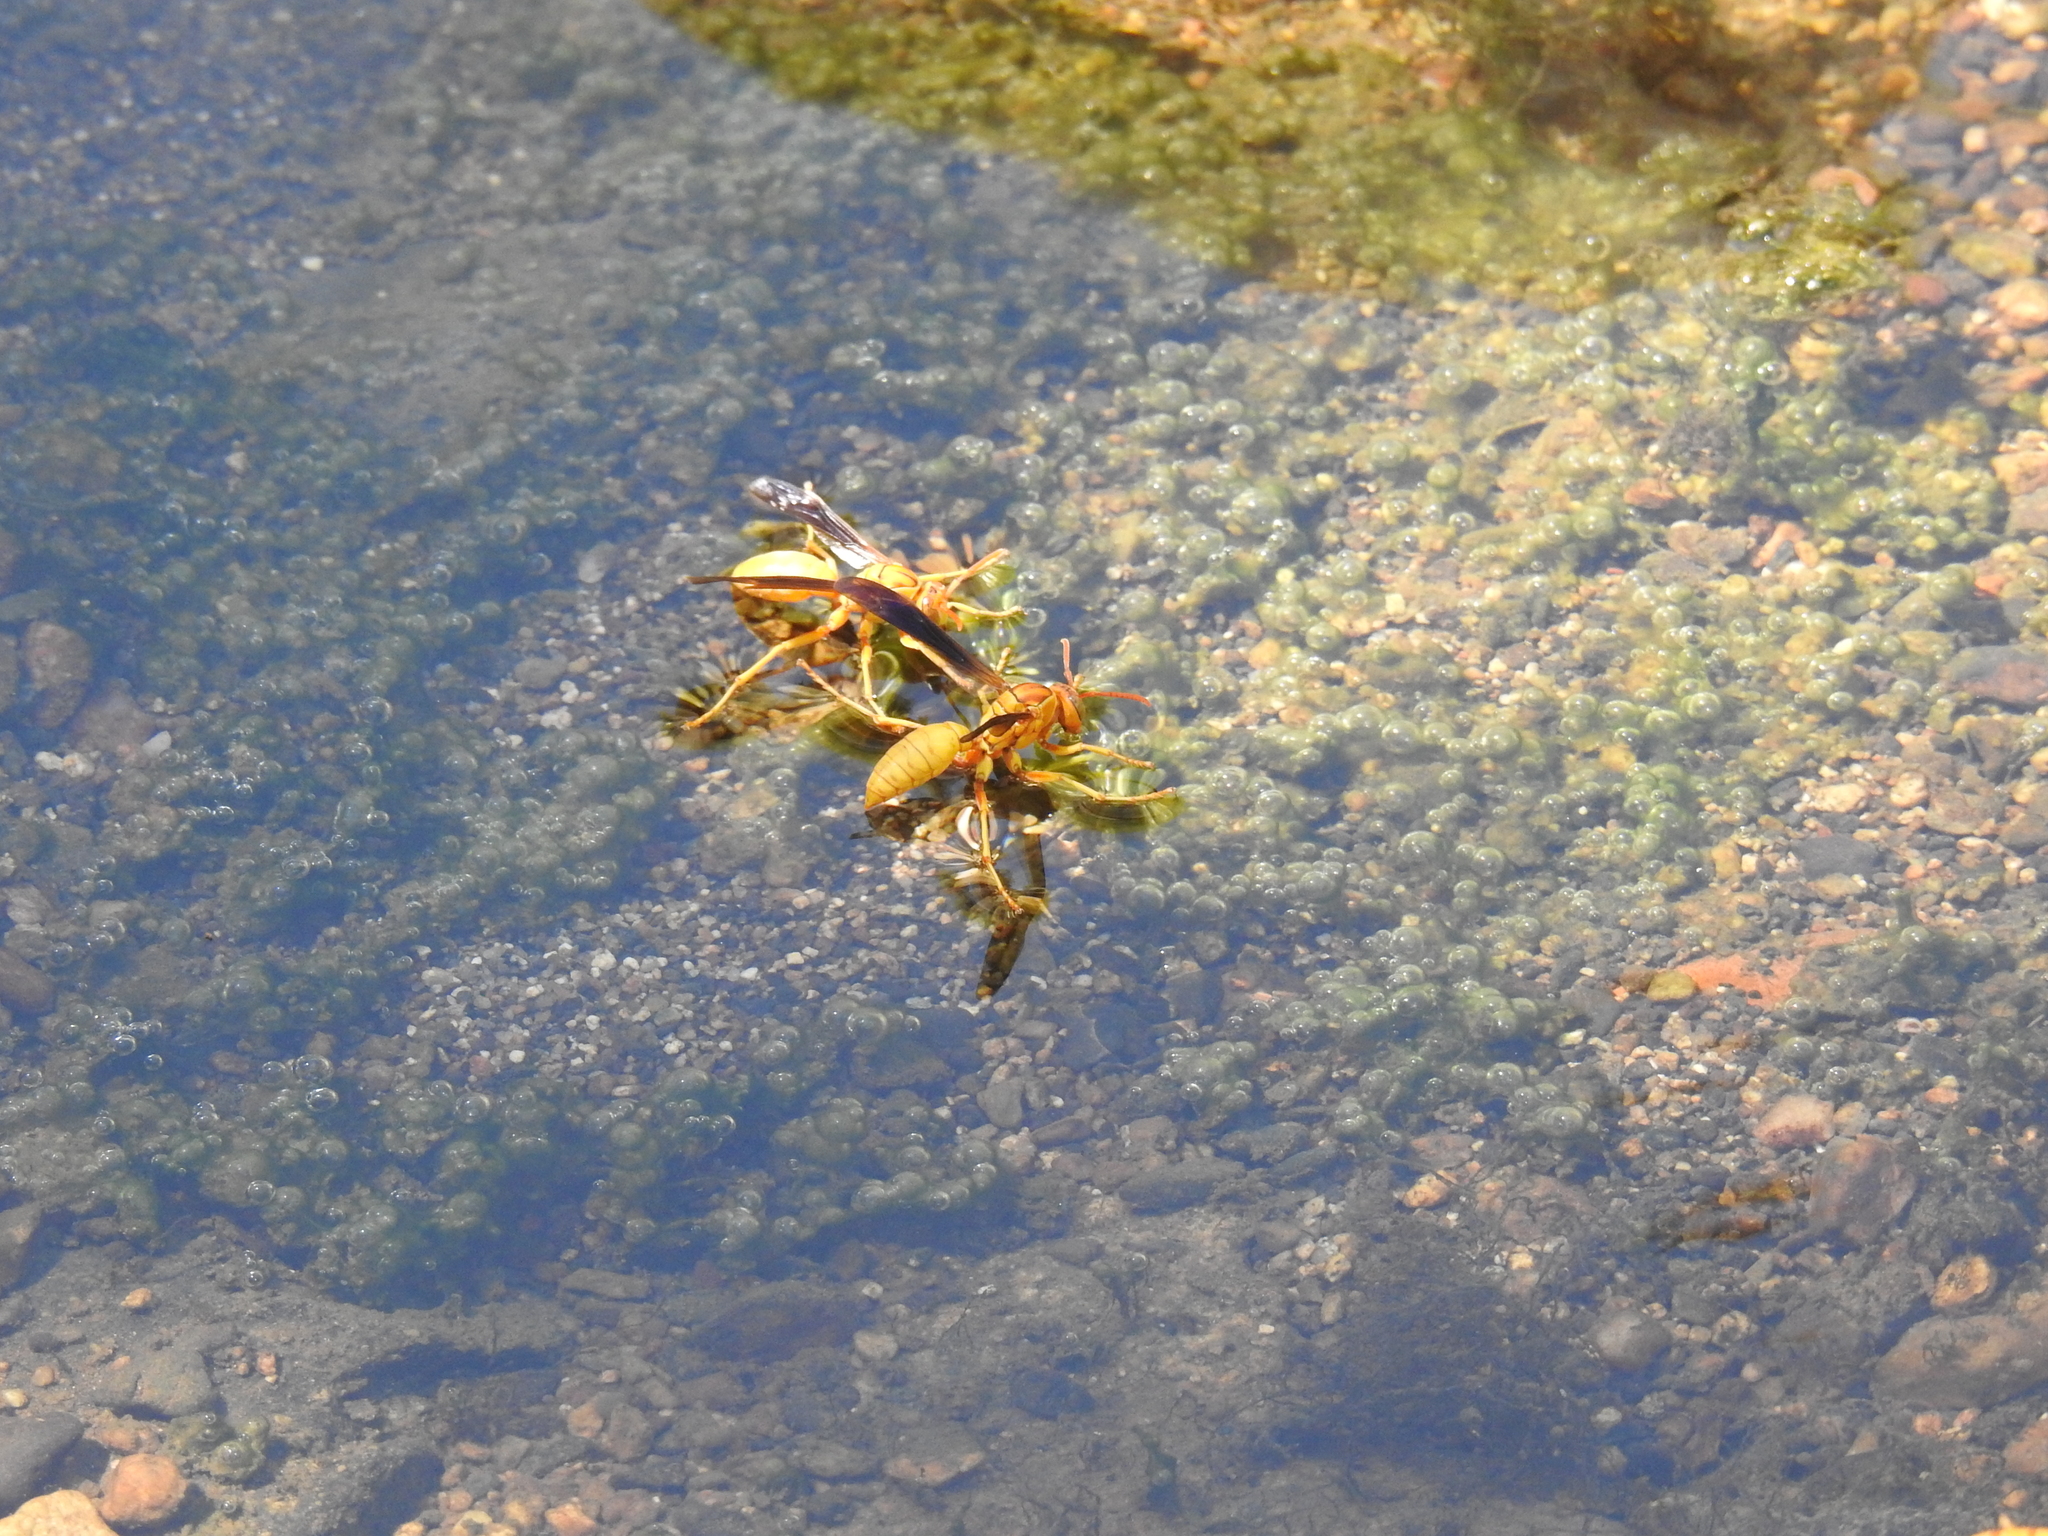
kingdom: Animalia
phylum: Arthropoda
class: Insecta
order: Hymenoptera
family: Eumenidae
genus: Polistes
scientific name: Polistes flavus
